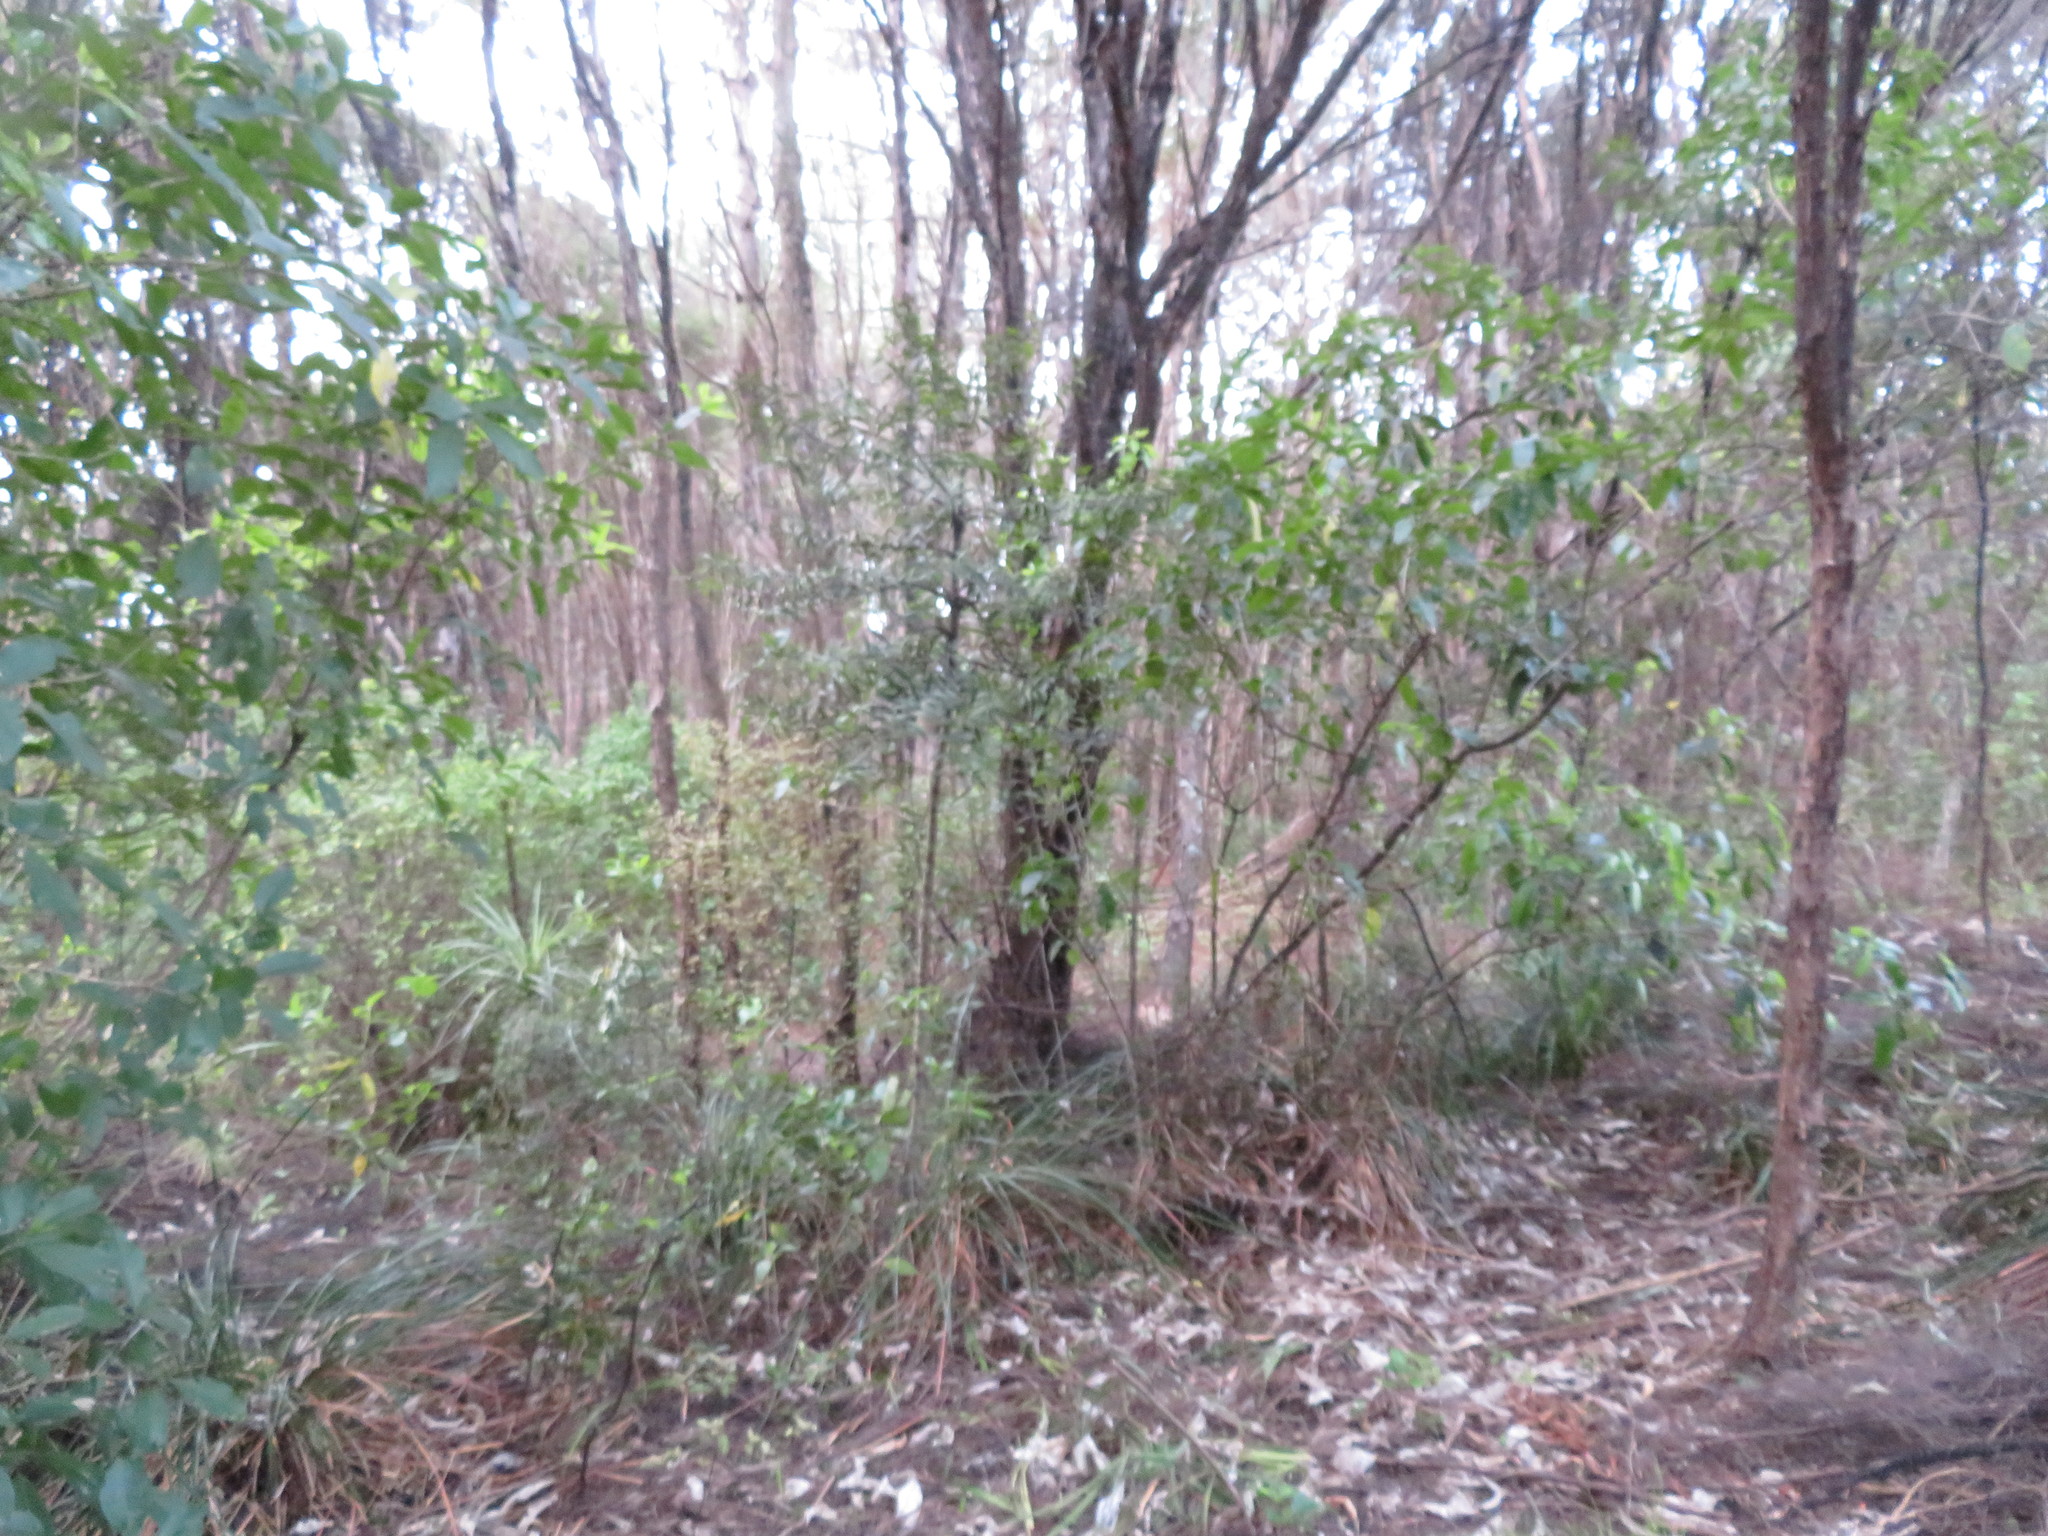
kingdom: Plantae
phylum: Tracheophyta
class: Pinopsida
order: Pinales
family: Araucariaceae
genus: Agathis
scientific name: Agathis australis
